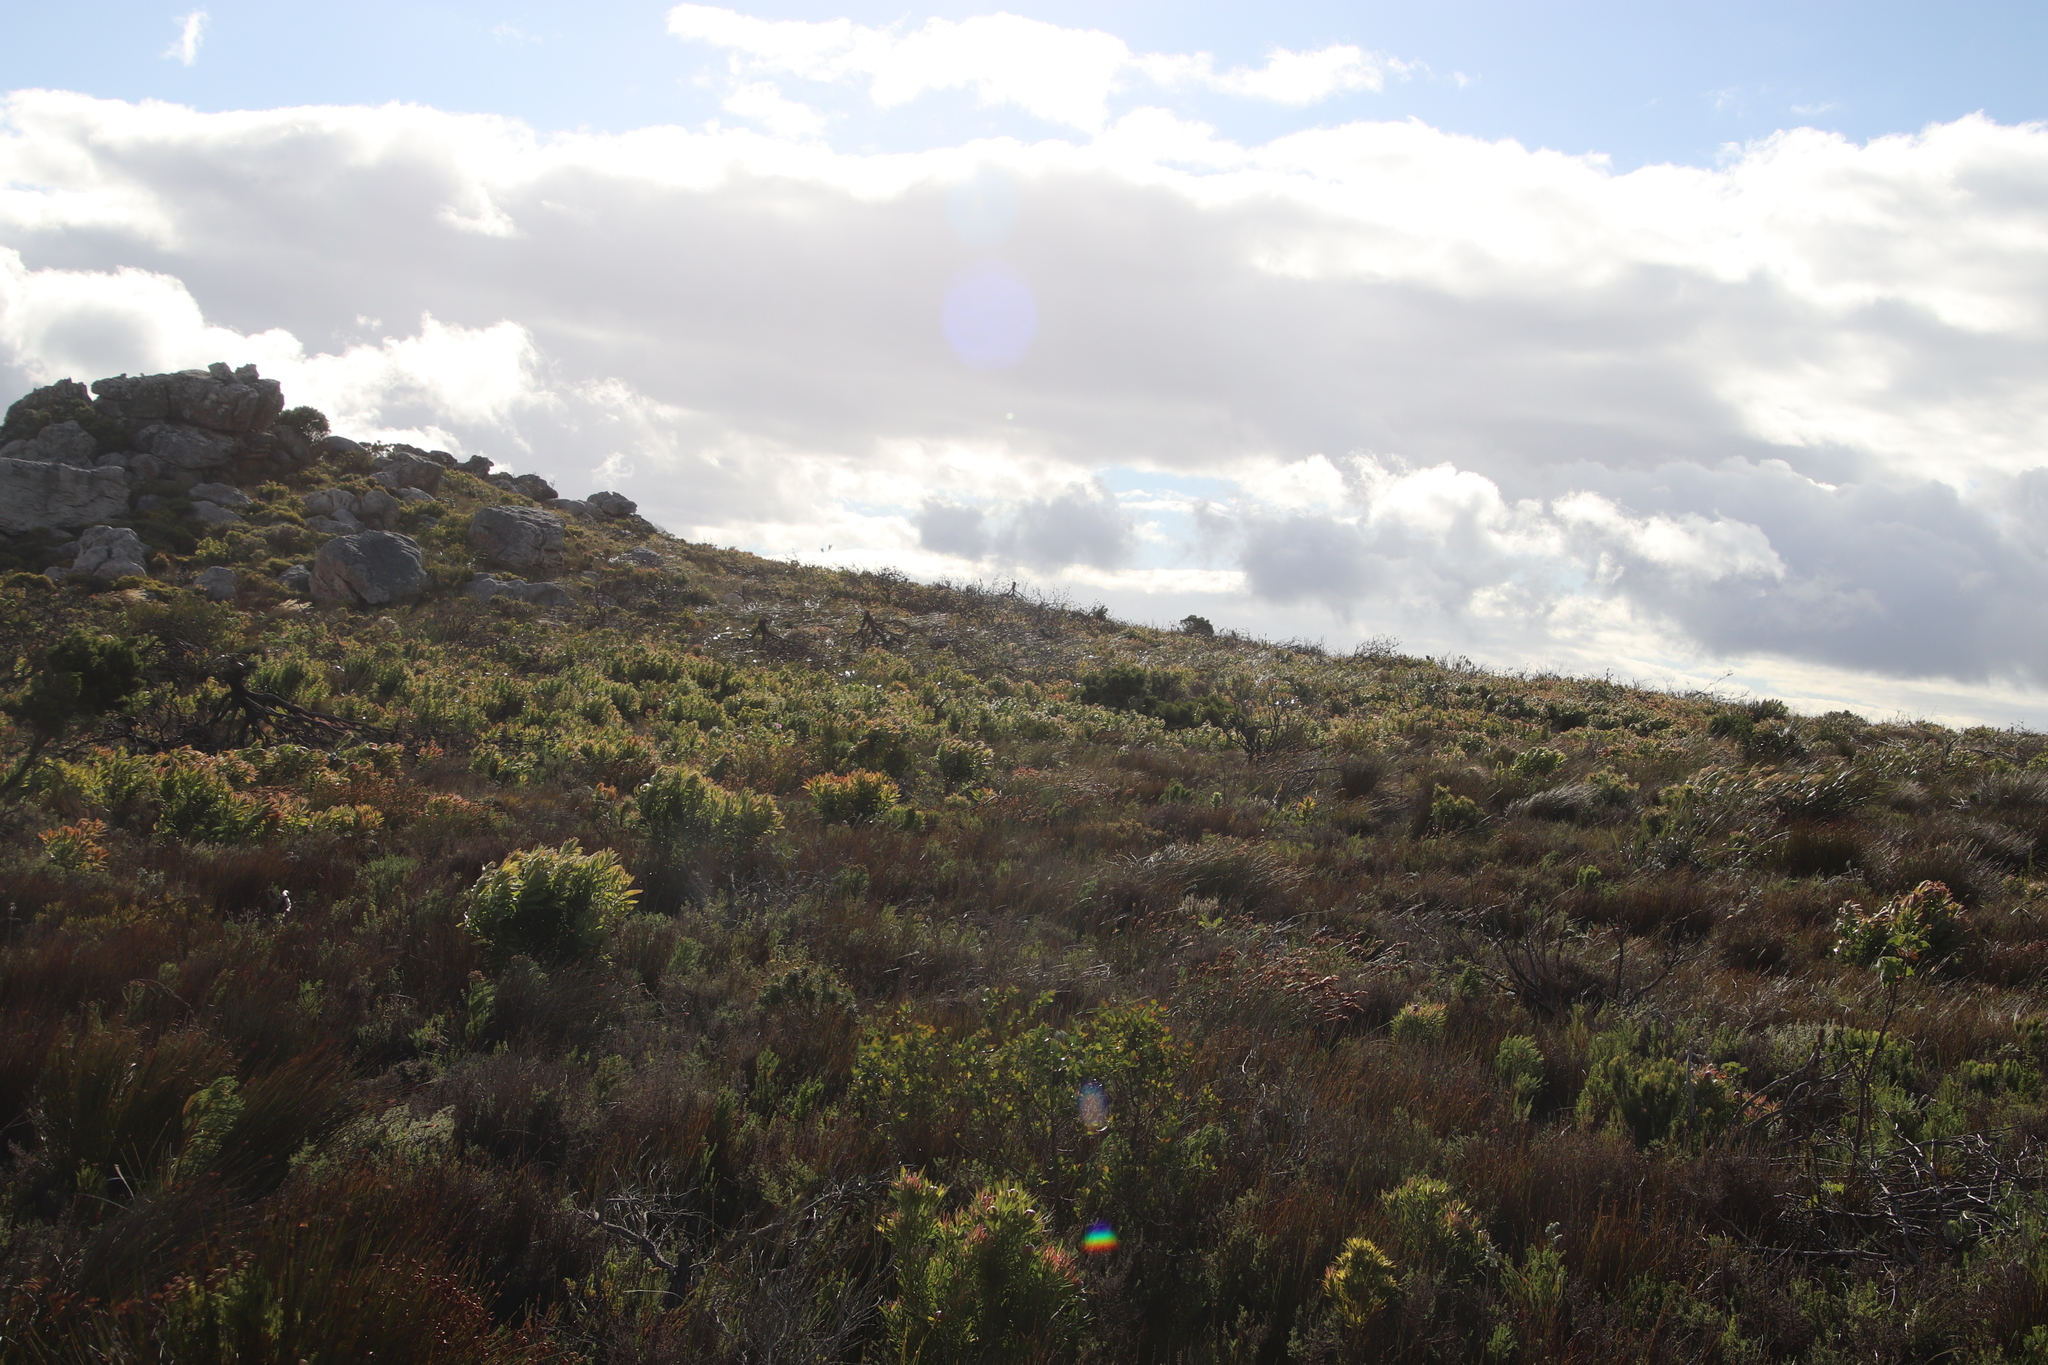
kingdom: Plantae
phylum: Tracheophyta
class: Magnoliopsida
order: Proteales
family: Proteaceae
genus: Protea
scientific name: Protea lepidocarpodendron
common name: Black-bearded protea
